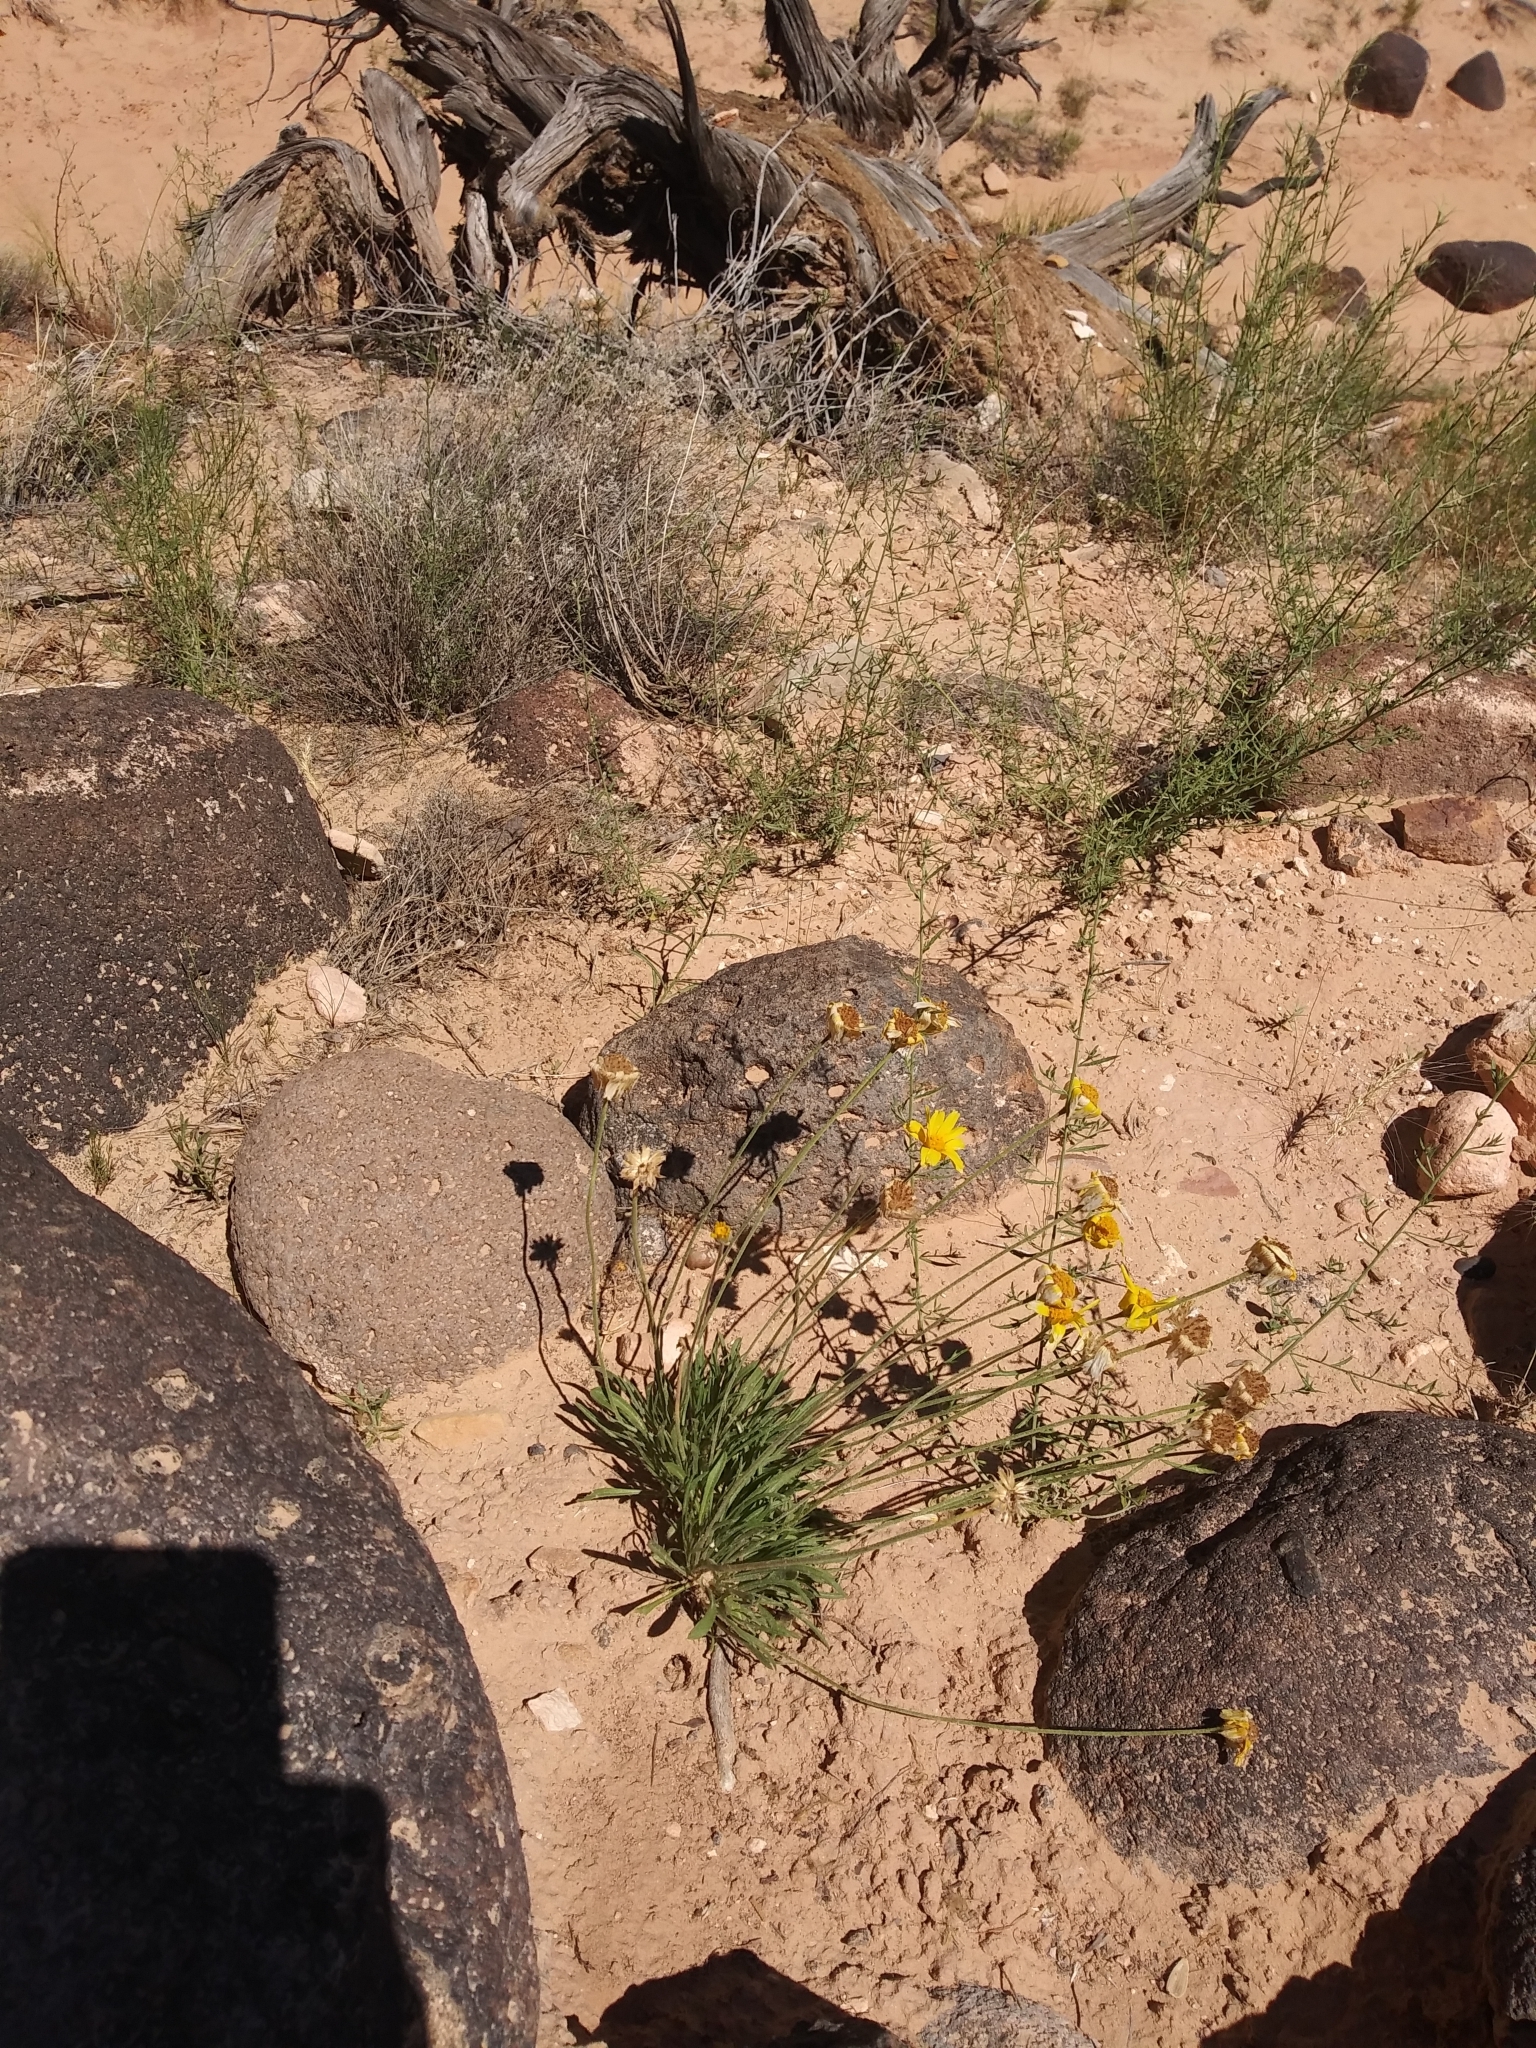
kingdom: Plantae
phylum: Tracheophyta
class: Magnoliopsida
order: Asterales
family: Asteraceae
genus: Tetraneuris
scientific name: Tetraneuris acaulis
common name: Butte marigold
